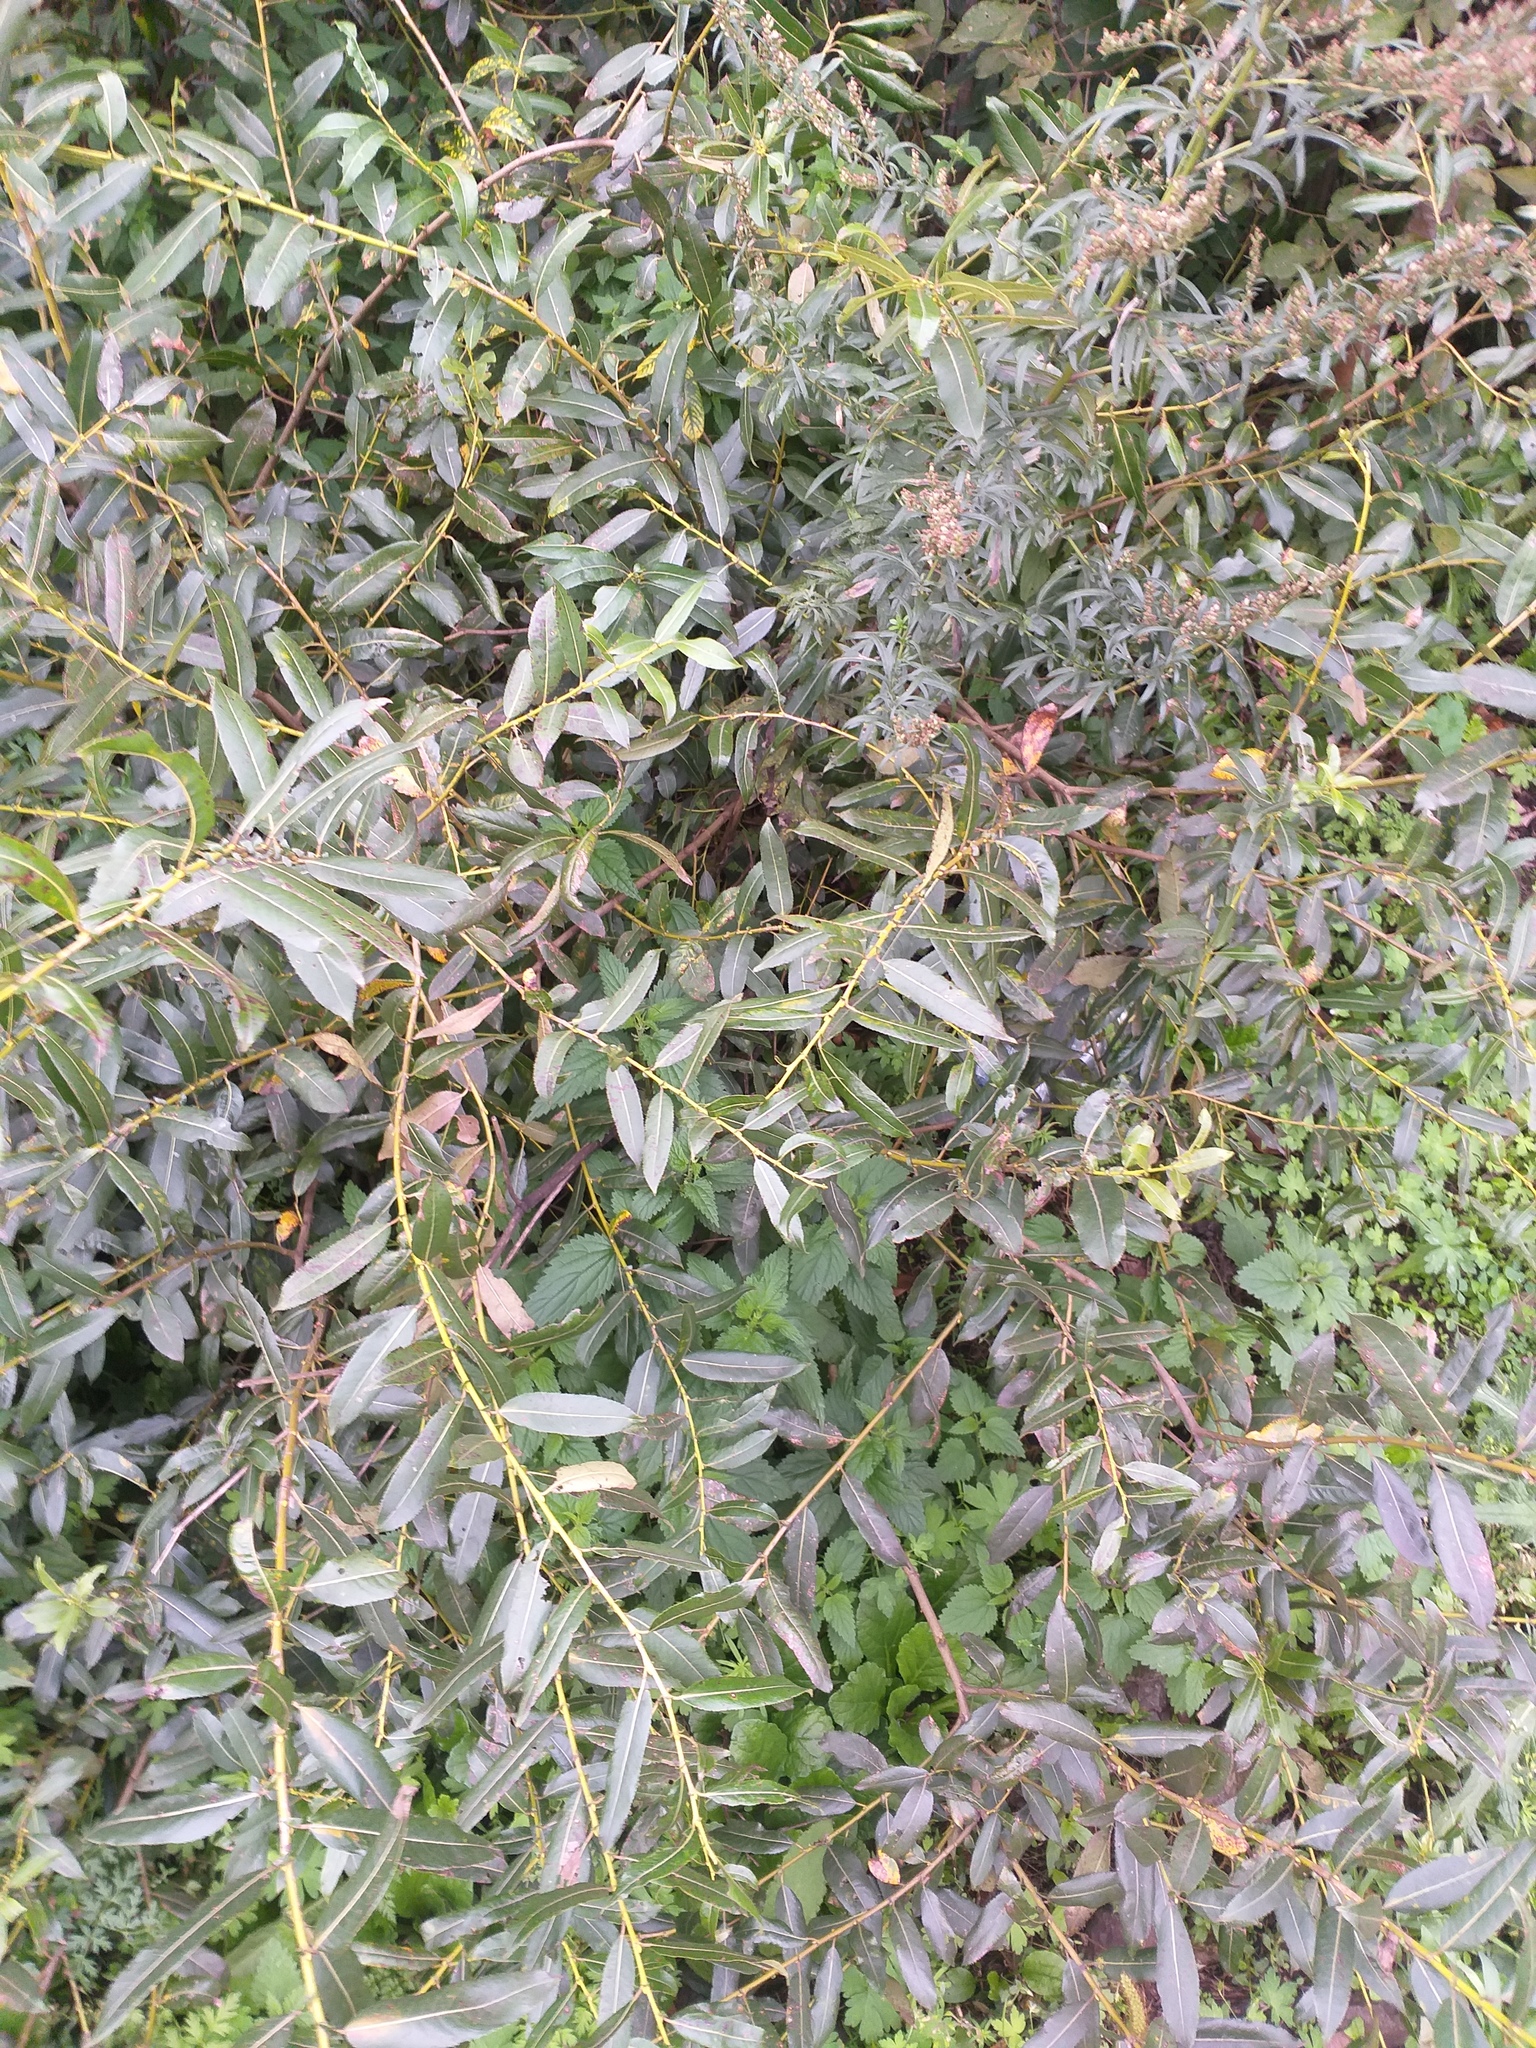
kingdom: Plantae
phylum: Tracheophyta
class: Magnoliopsida
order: Malpighiales
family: Salicaceae
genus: Salix
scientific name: Salix triandra
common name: Almond willow
